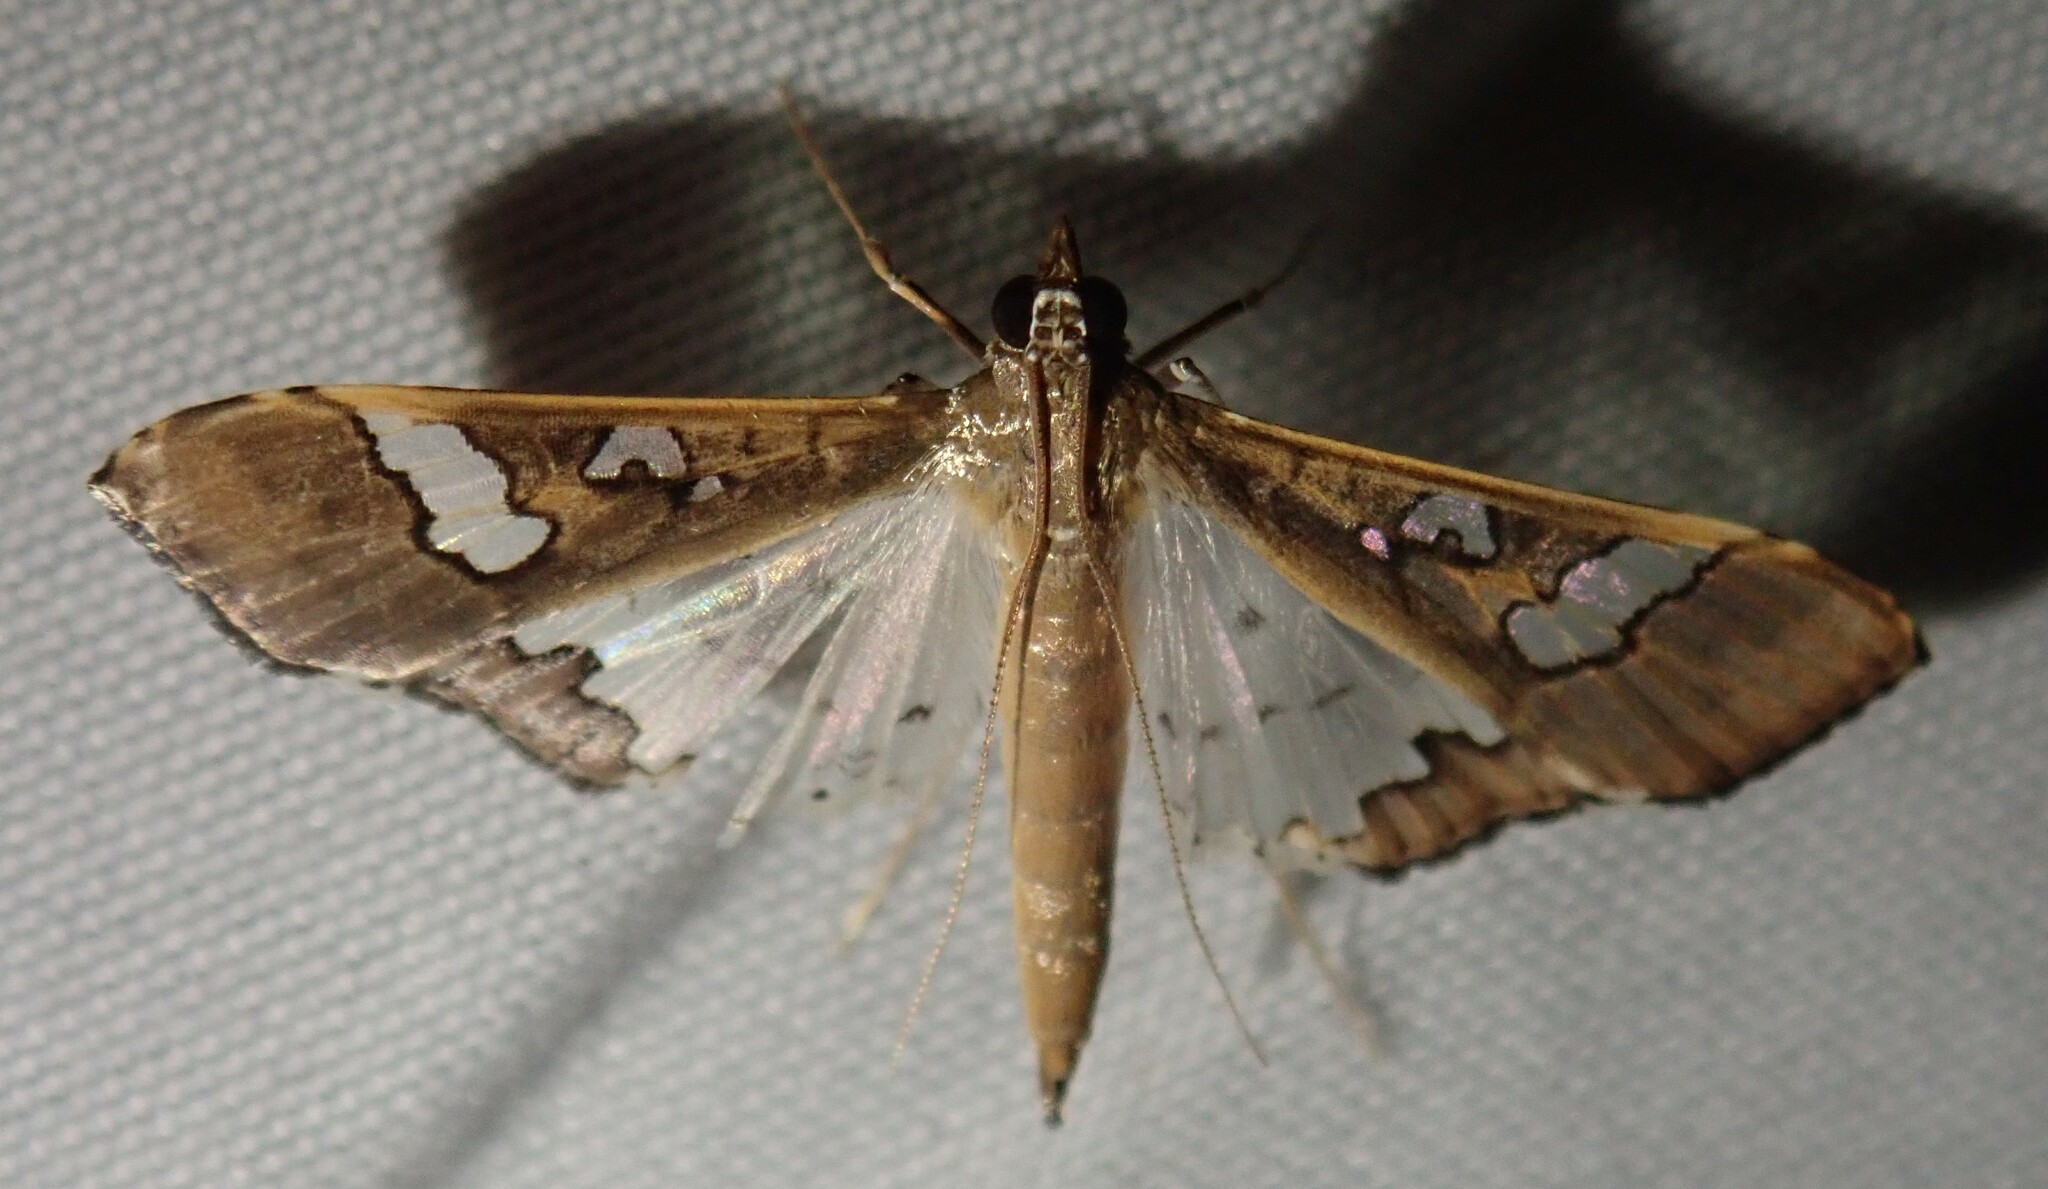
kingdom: Animalia
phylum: Arthropoda
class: Insecta
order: Lepidoptera
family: Crambidae
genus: Maruca
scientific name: Maruca vitrata
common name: Maruca pod borer
